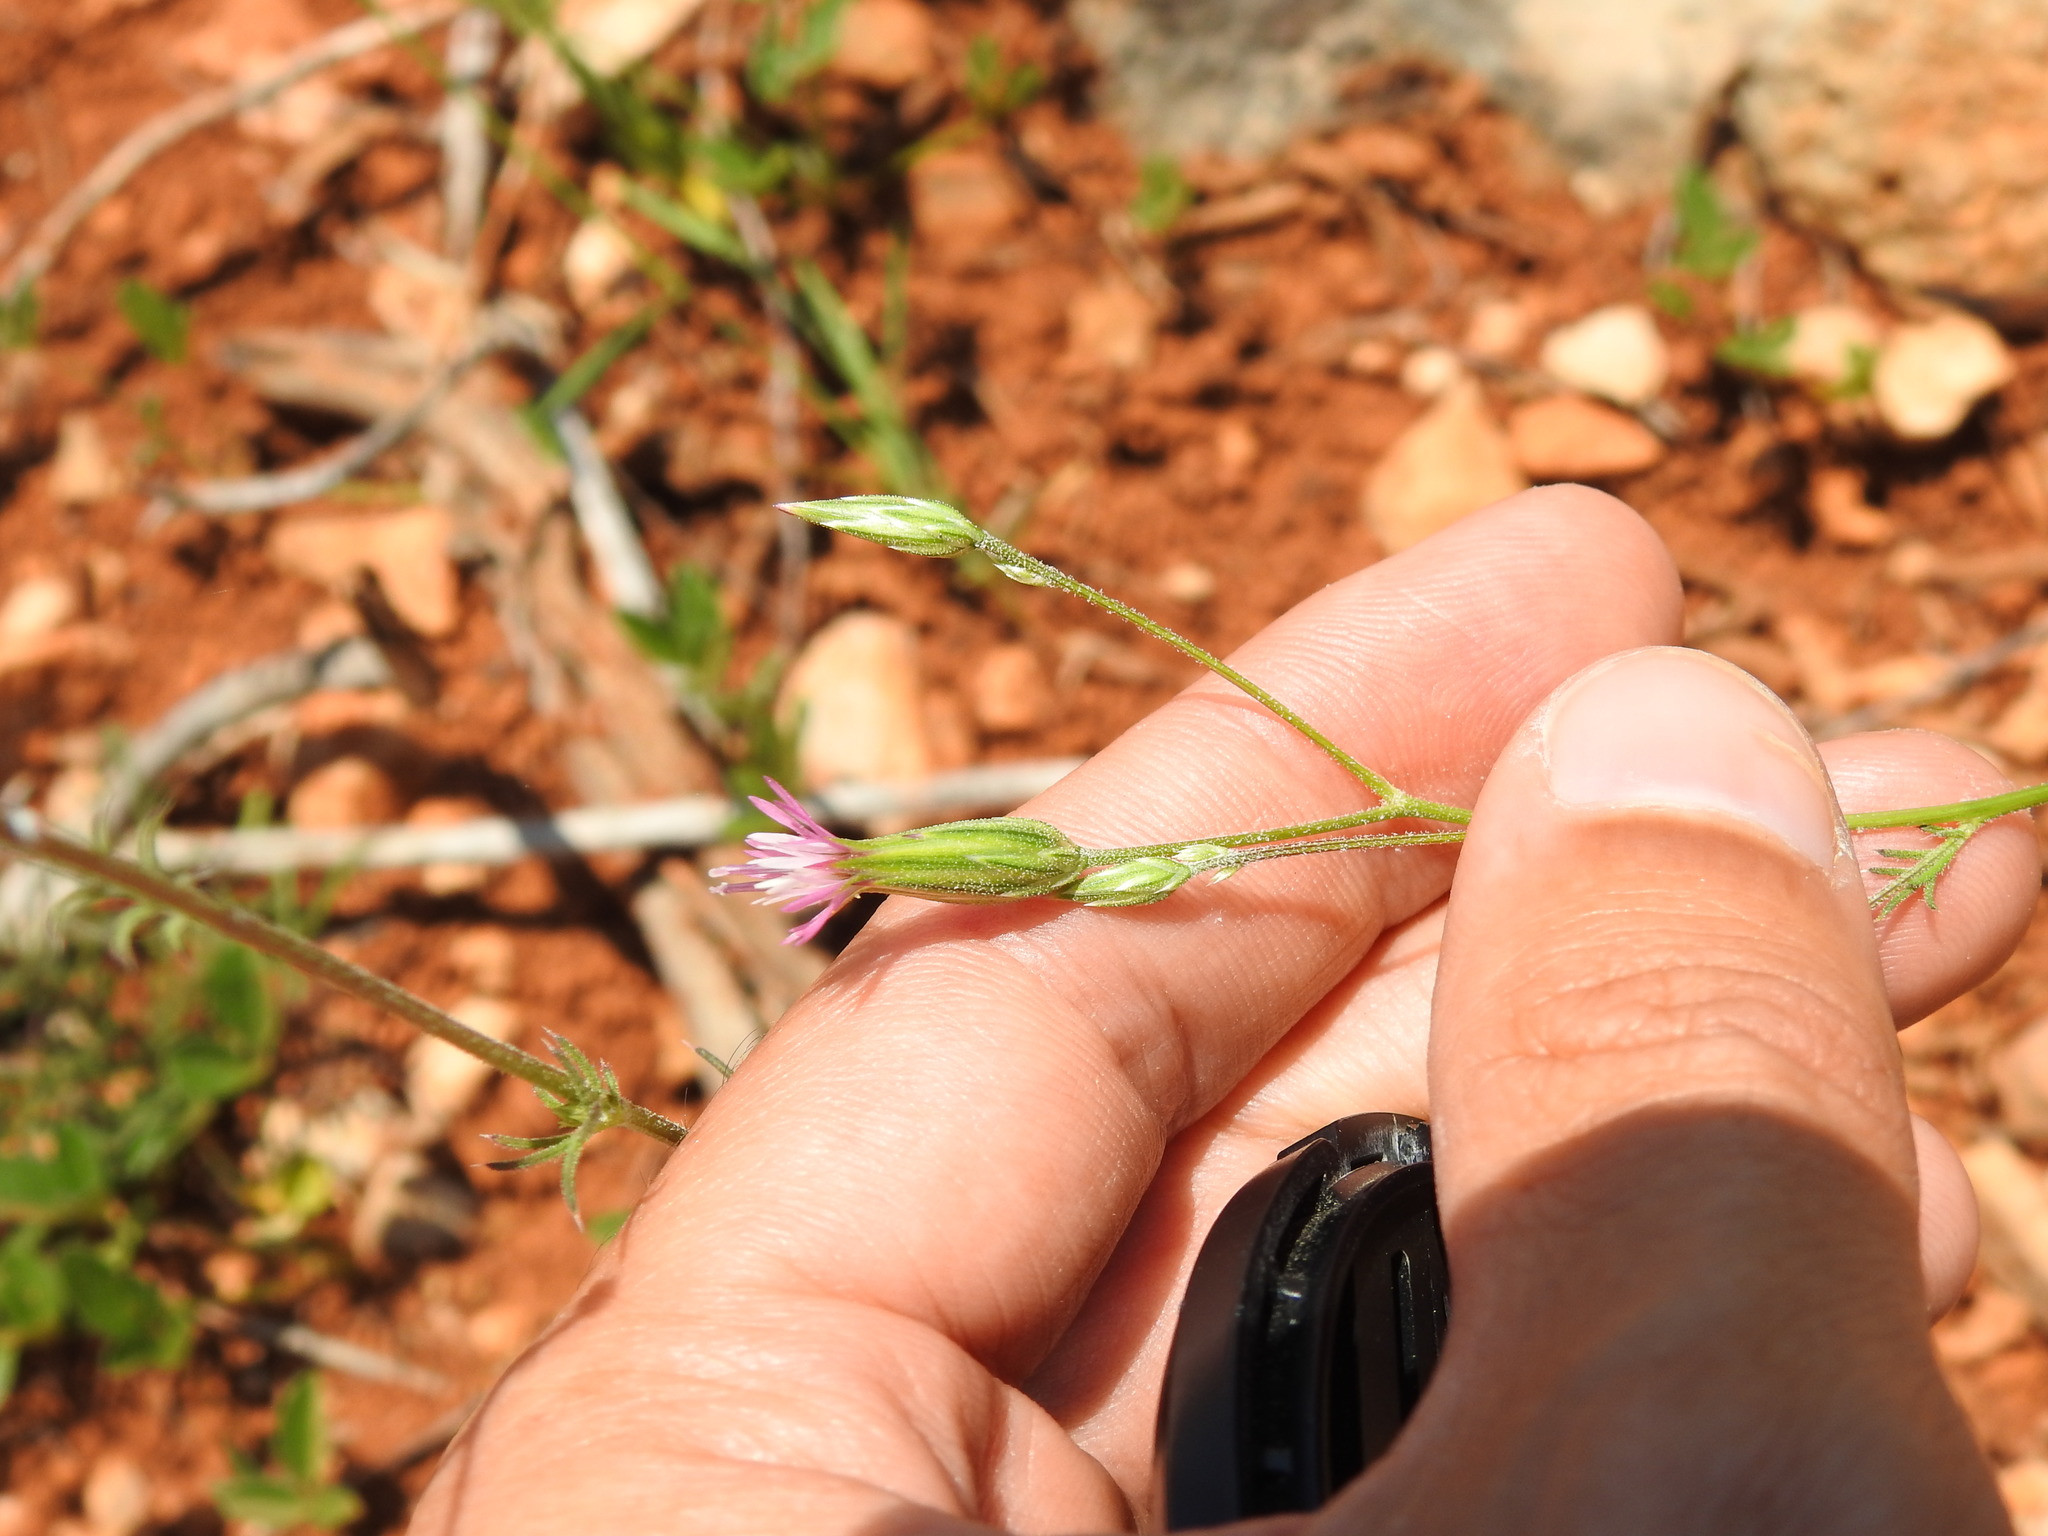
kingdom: Plantae
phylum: Tracheophyta
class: Magnoliopsida
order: Asterales
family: Asteraceae
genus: Crupina
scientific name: Crupina vulgaris
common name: Common crupina
